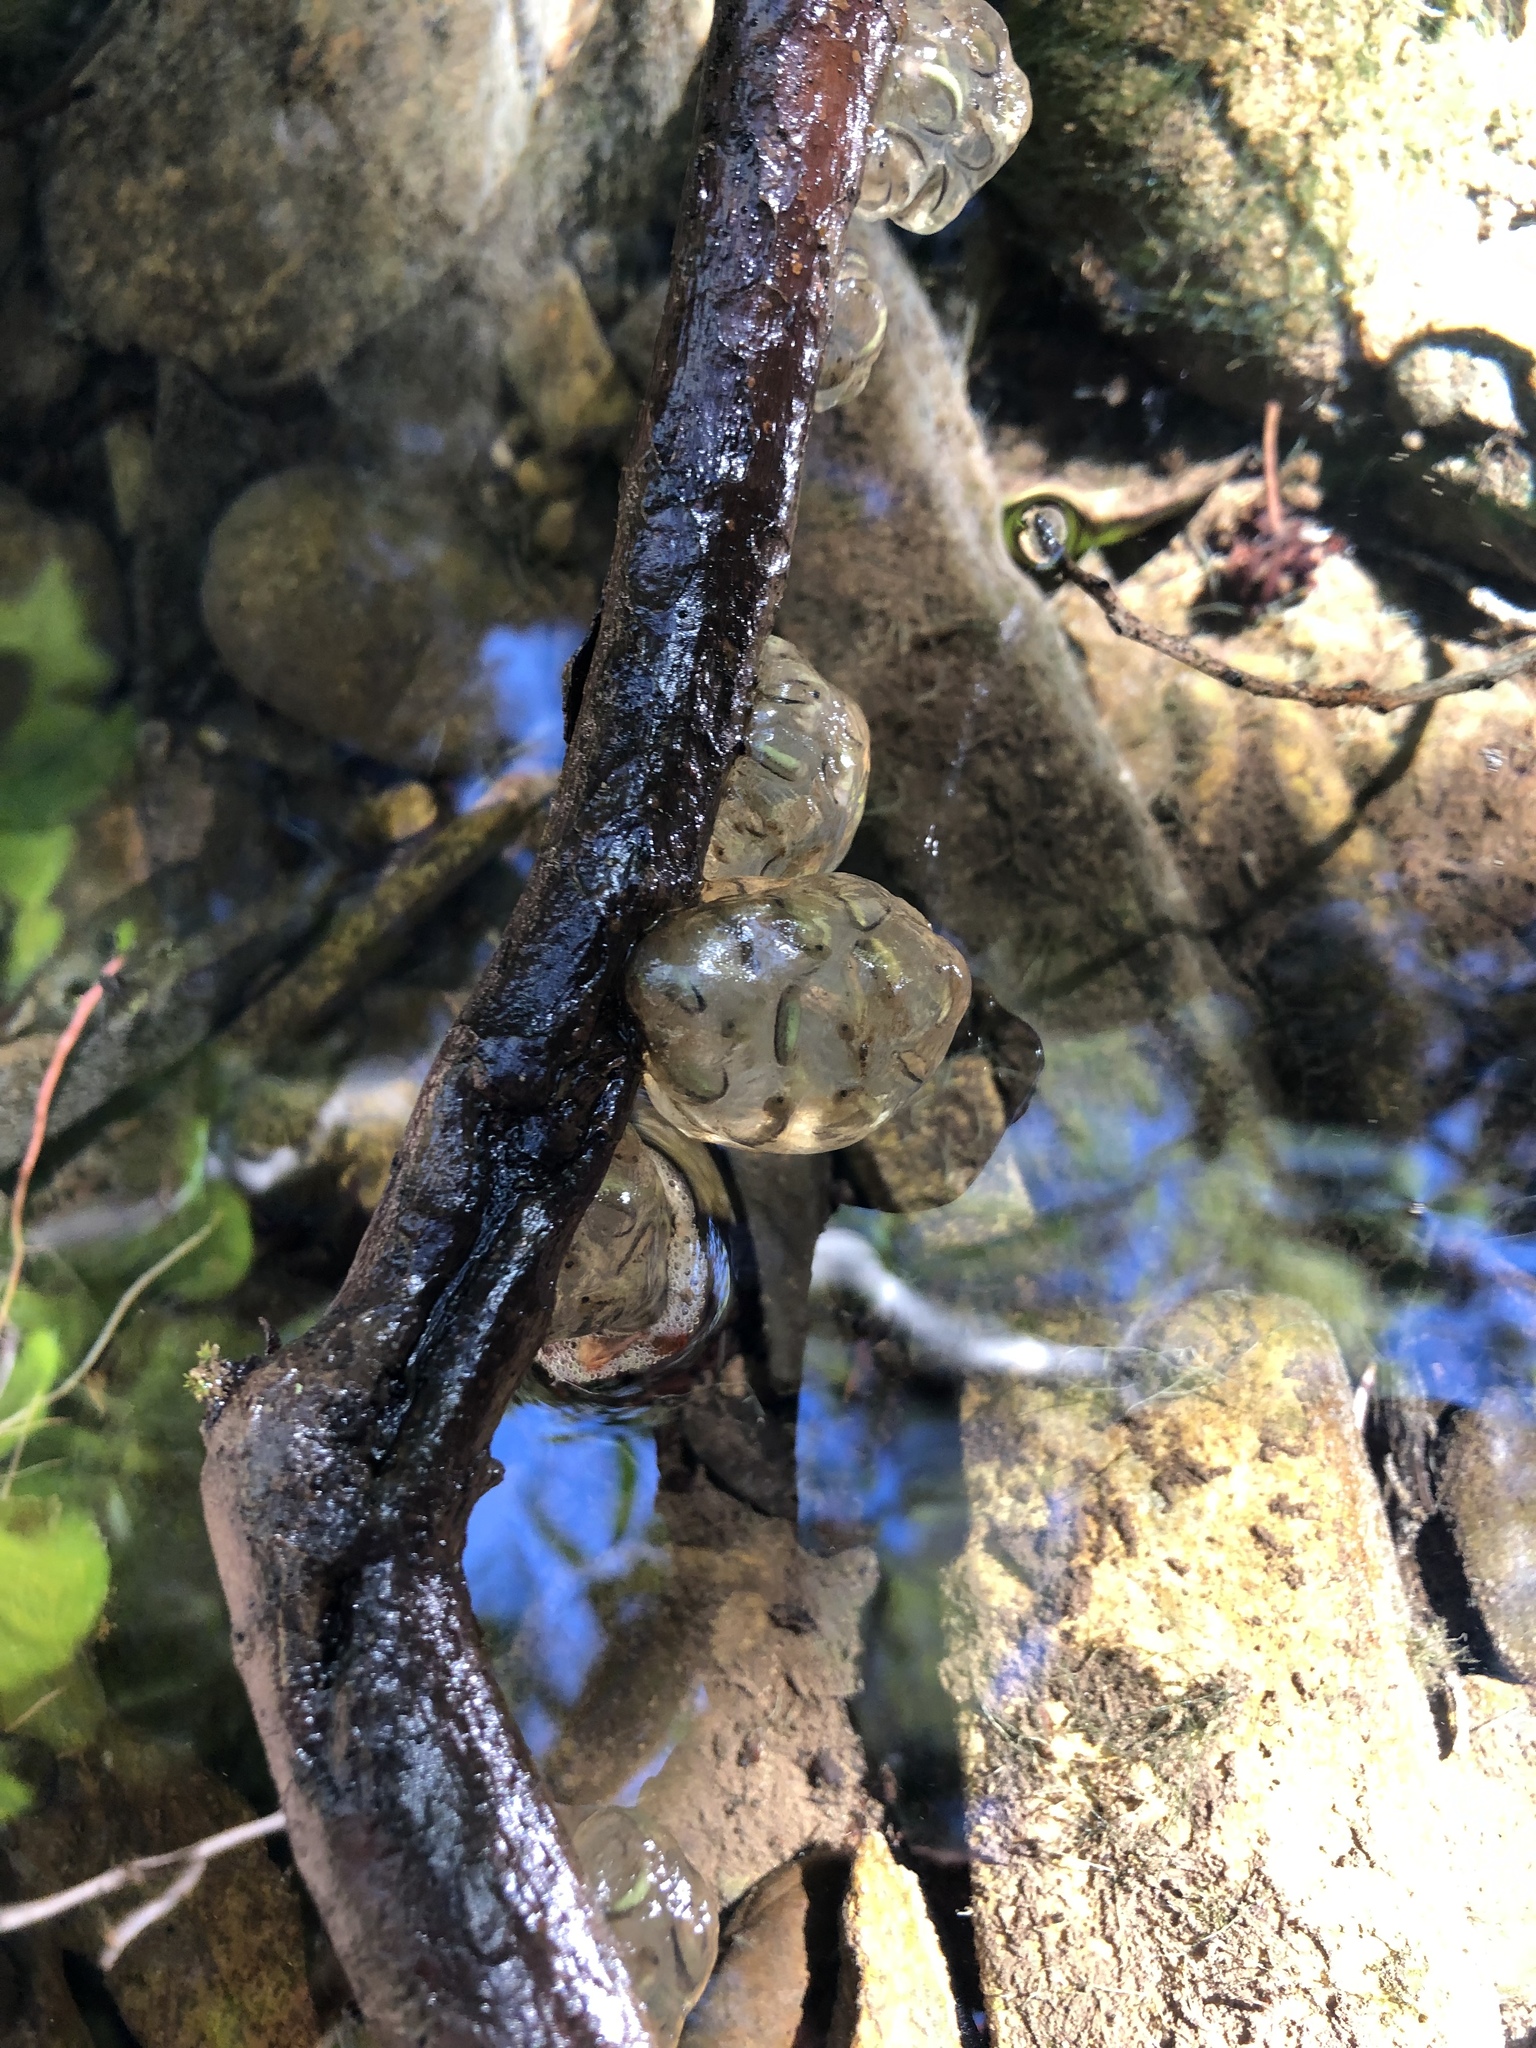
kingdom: Animalia
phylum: Chordata
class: Amphibia
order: Caudata
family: Salamandridae
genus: Taricha
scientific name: Taricha torosa
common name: California newt
